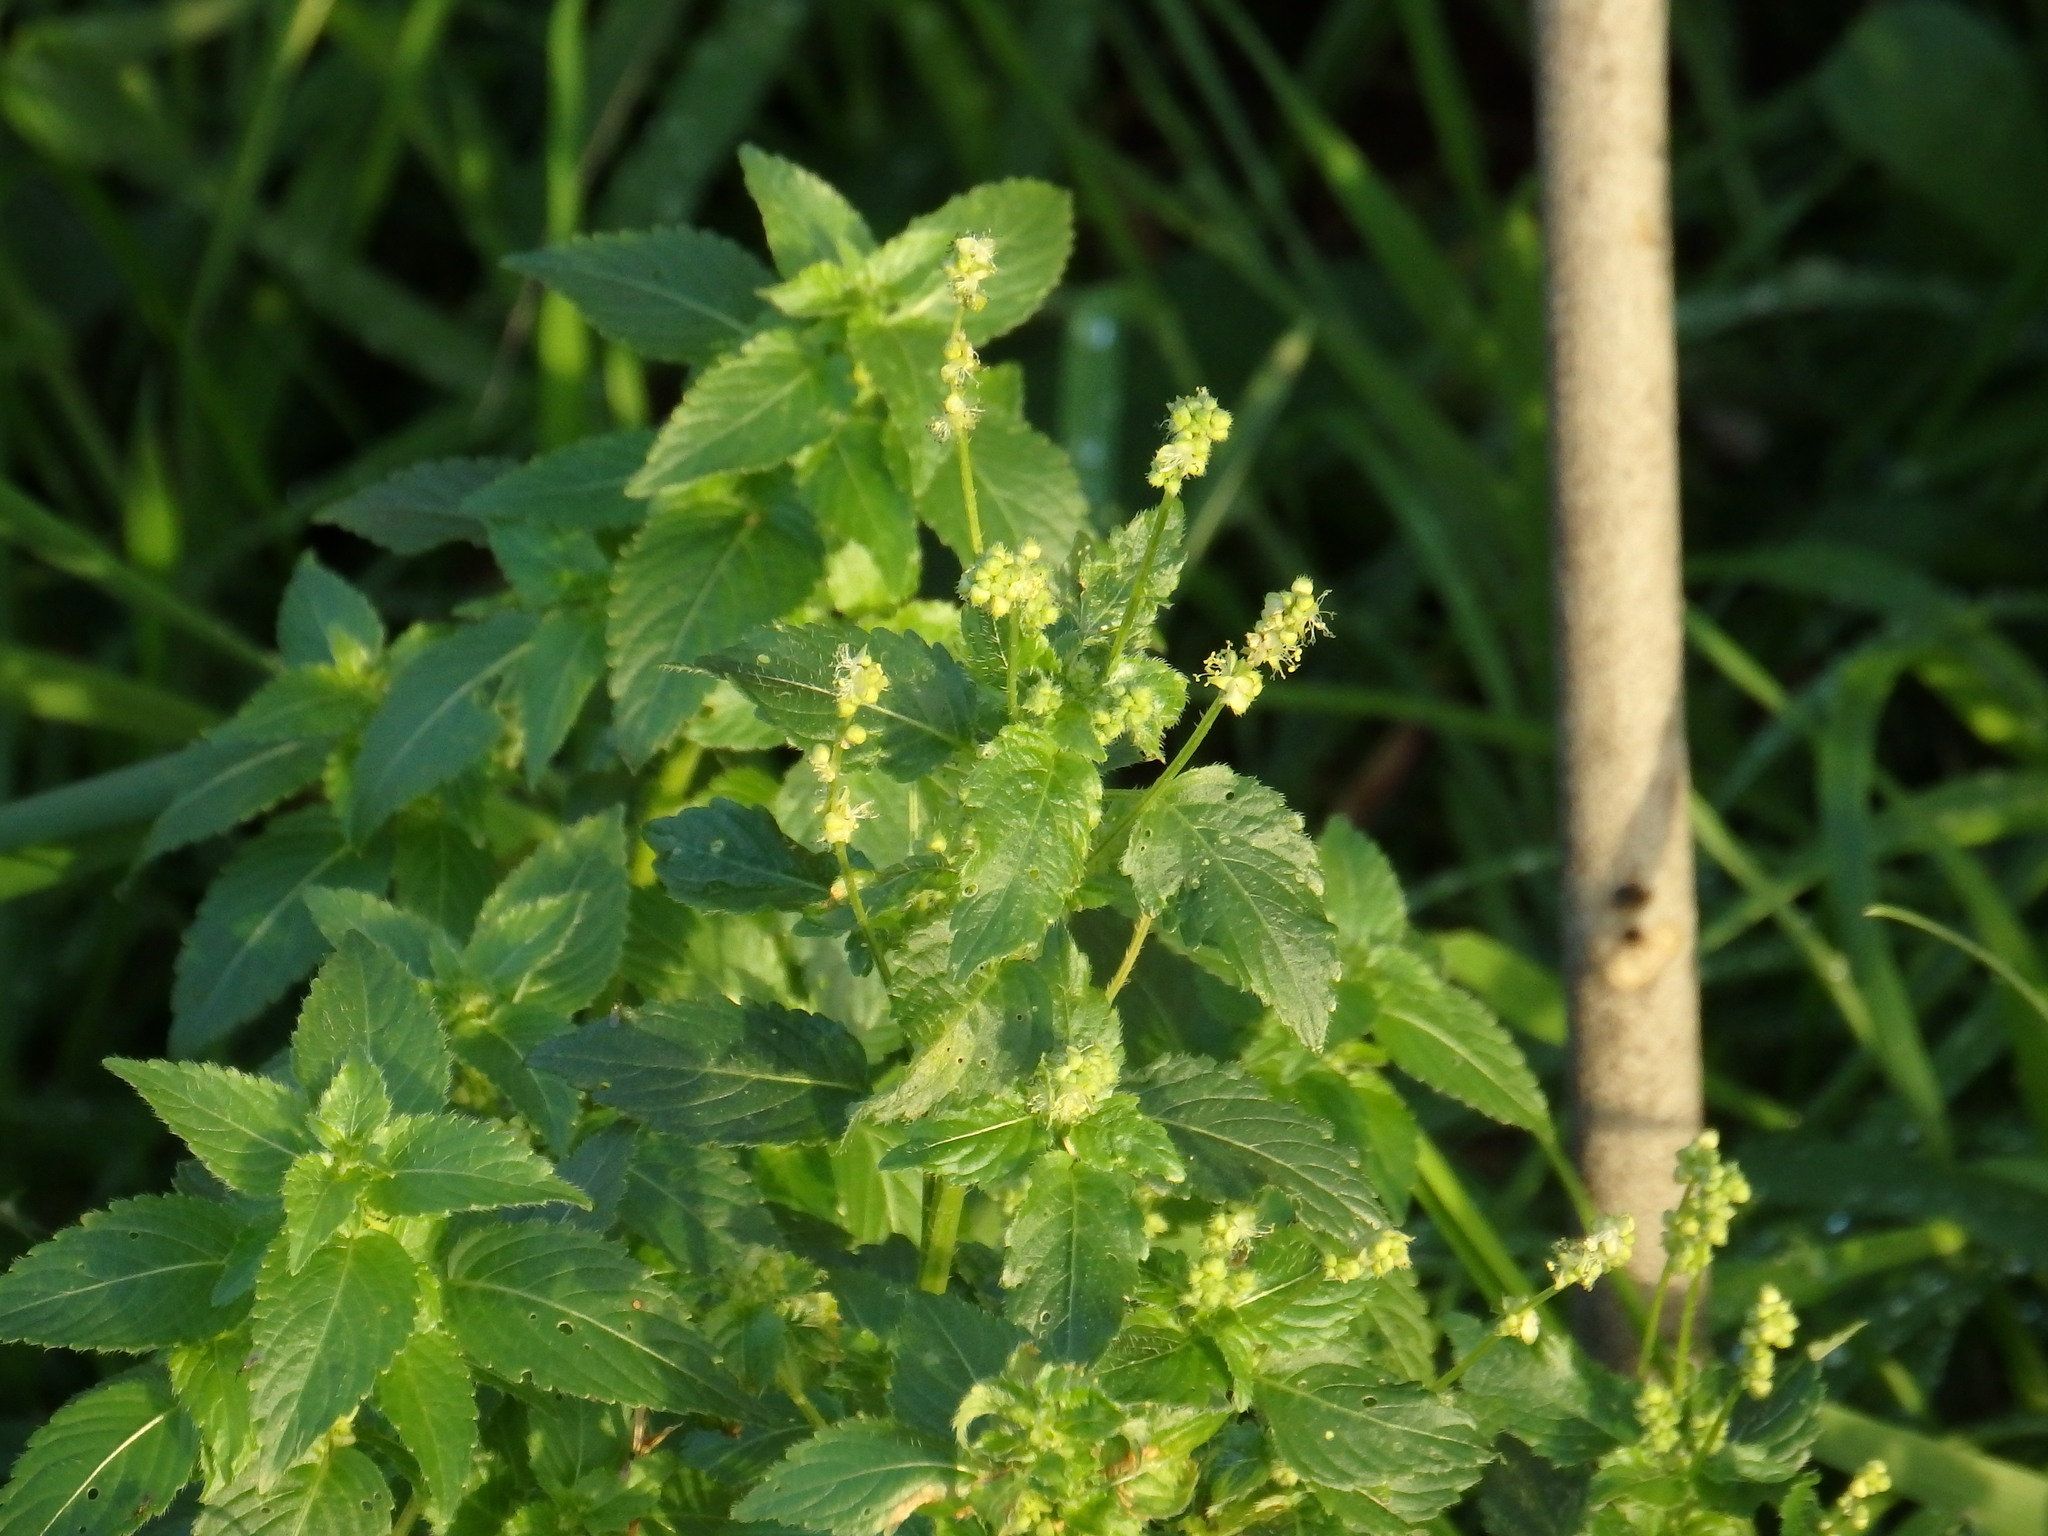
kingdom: Plantae
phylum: Tracheophyta
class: Magnoliopsida
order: Malpighiales
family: Euphorbiaceae
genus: Mercurialis
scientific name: Mercurialis annua
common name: Annual mercury
